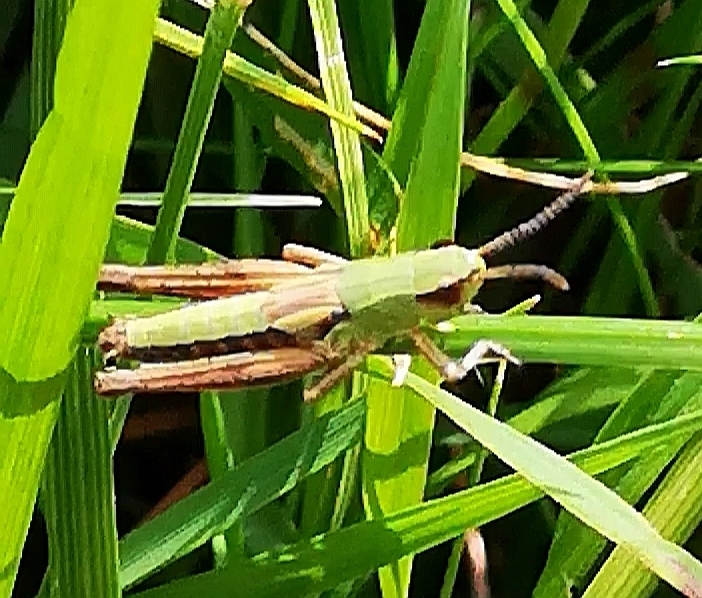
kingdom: Animalia
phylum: Arthropoda
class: Insecta
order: Orthoptera
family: Acrididae
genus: Pseudochorthippus
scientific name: Pseudochorthippus parallelus
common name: Meadow grasshopper
